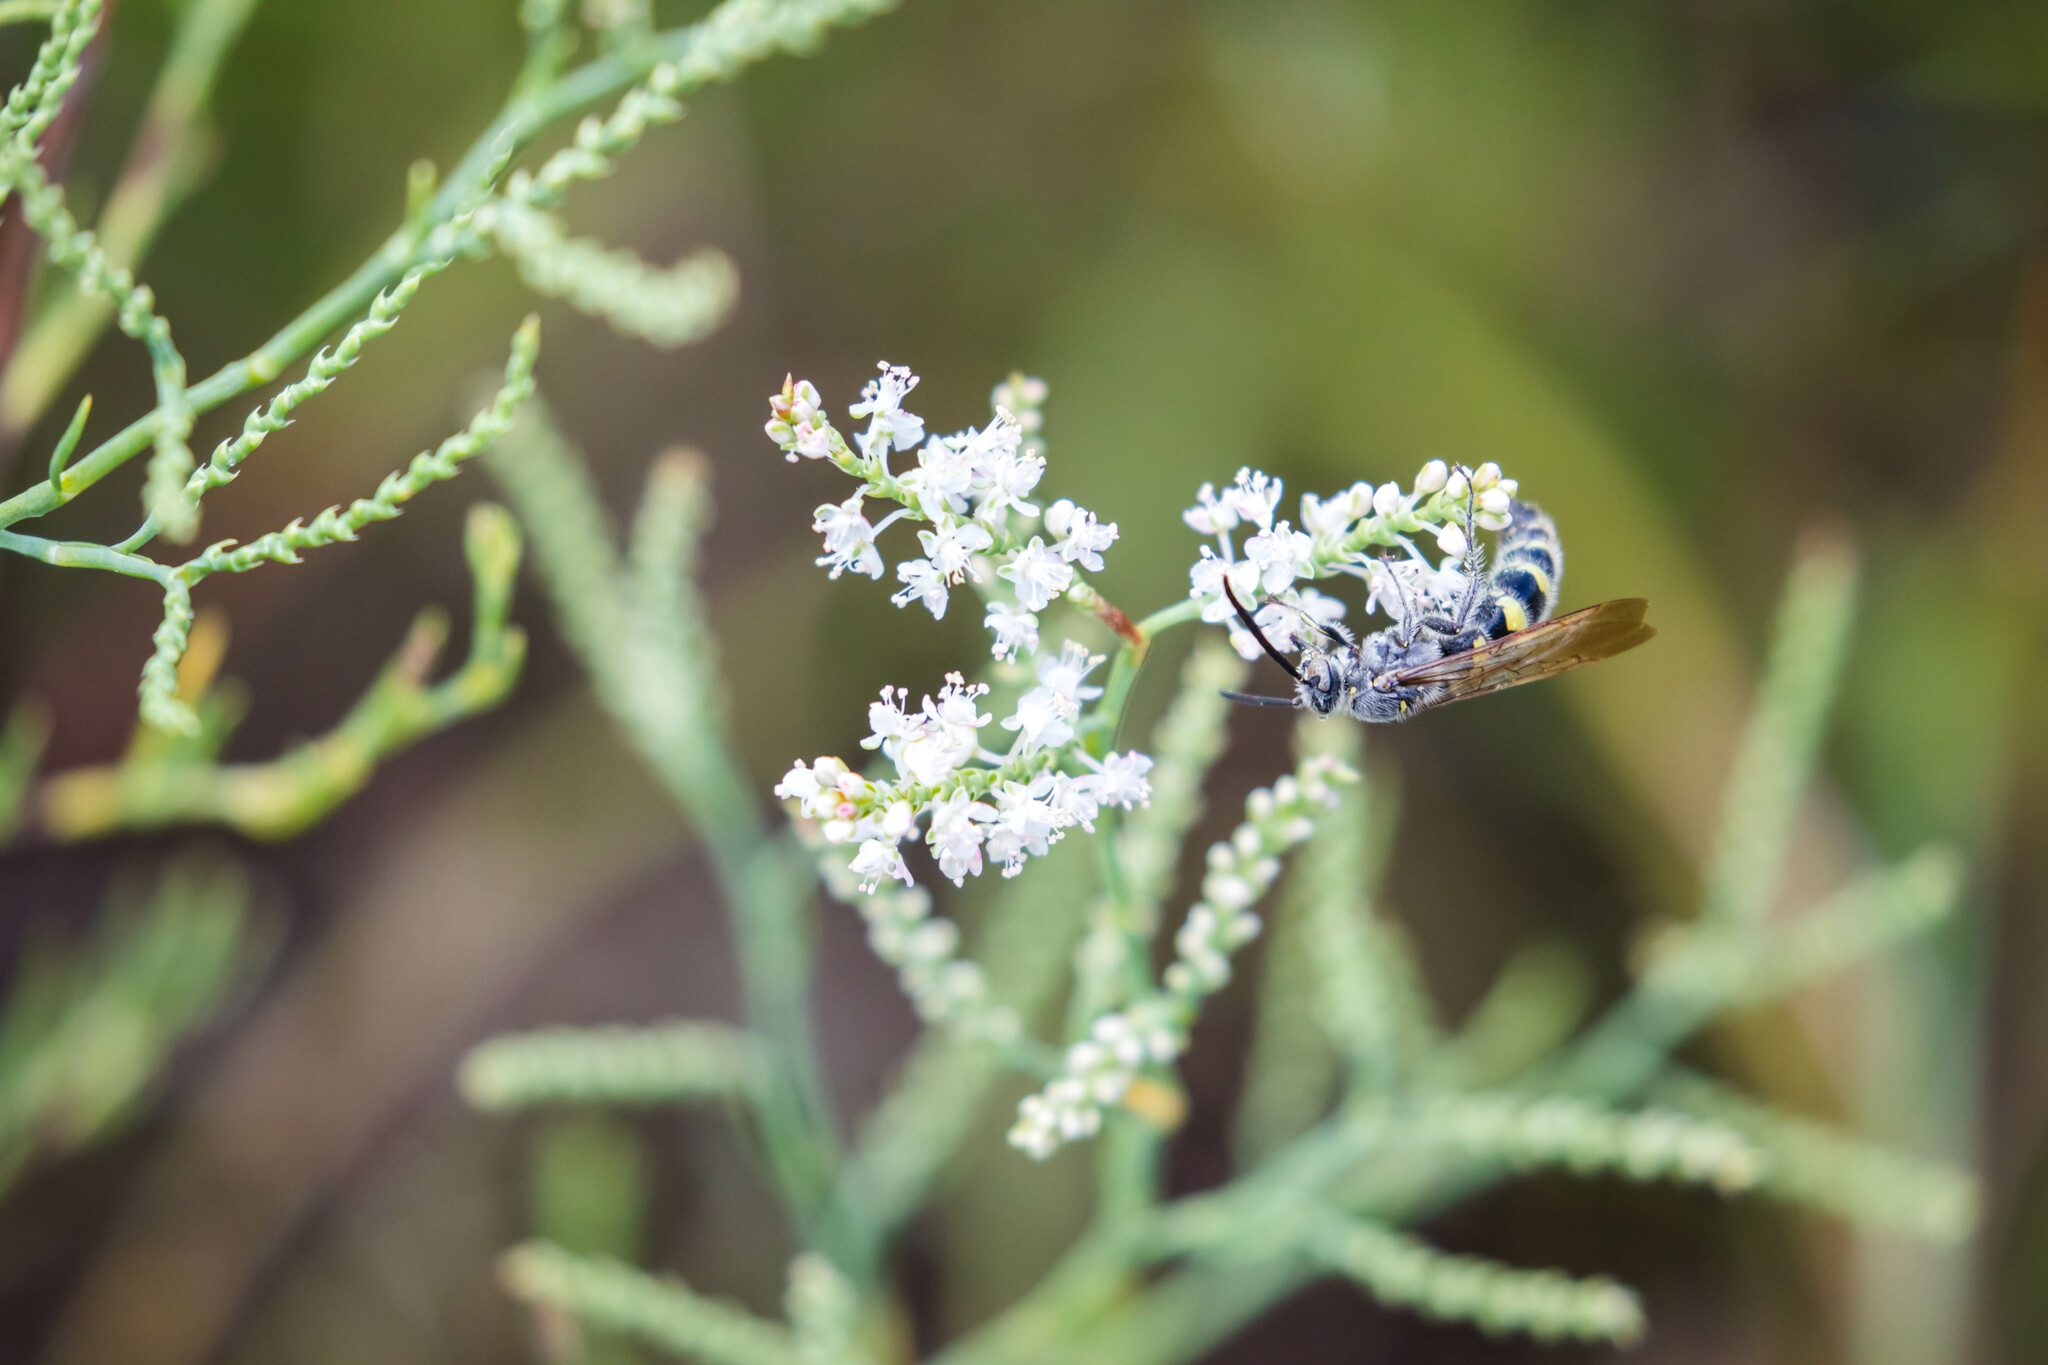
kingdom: Animalia
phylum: Arthropoda
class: Insecta
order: Hymenoptera
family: Scoliidae
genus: Dielis
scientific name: Dielis
